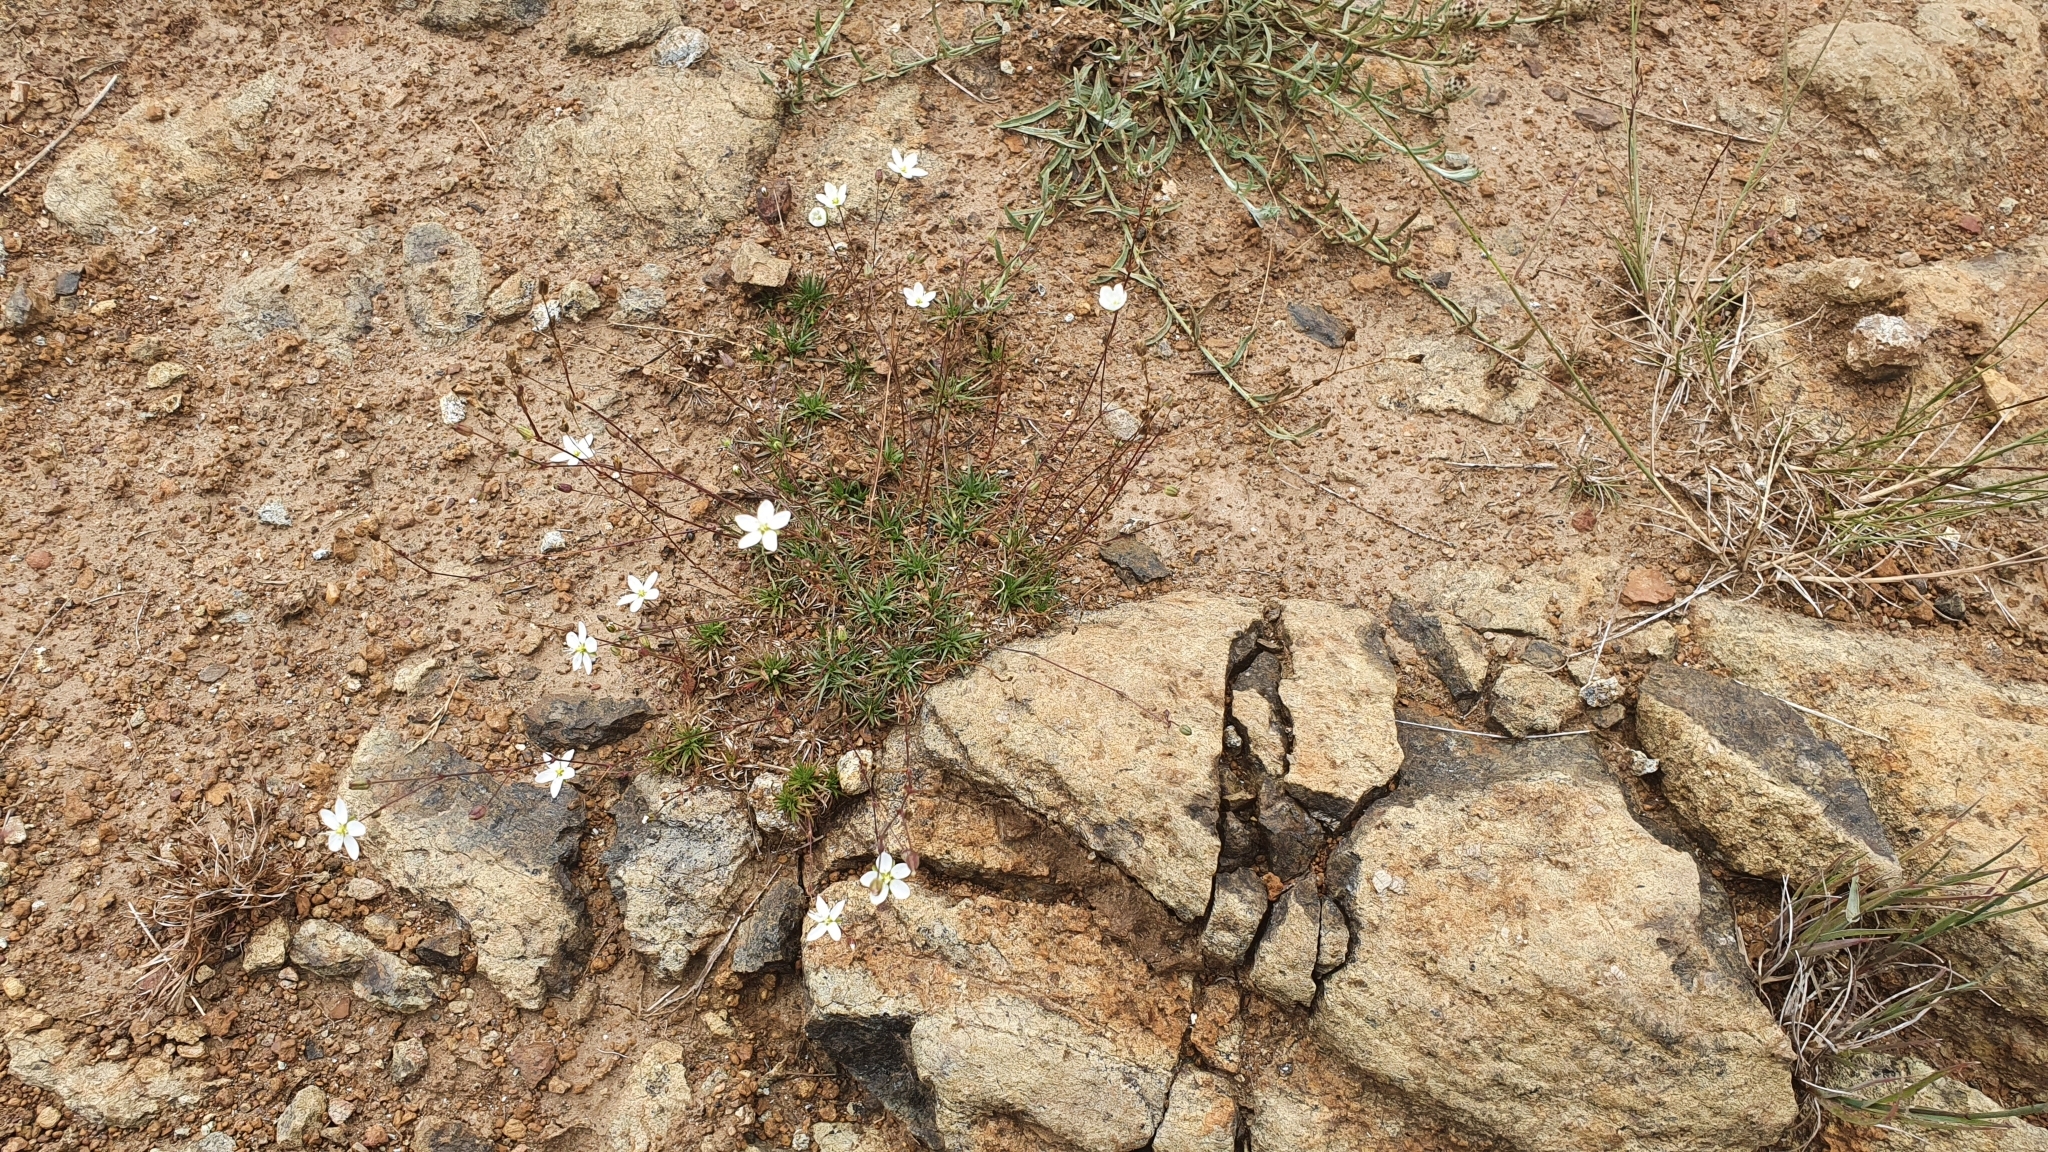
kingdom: Plantae
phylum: Tracheophyta
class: Magnoliopsida
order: Caryophyllales
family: Caryophyllaceae
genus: Sagina
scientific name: Sagina
